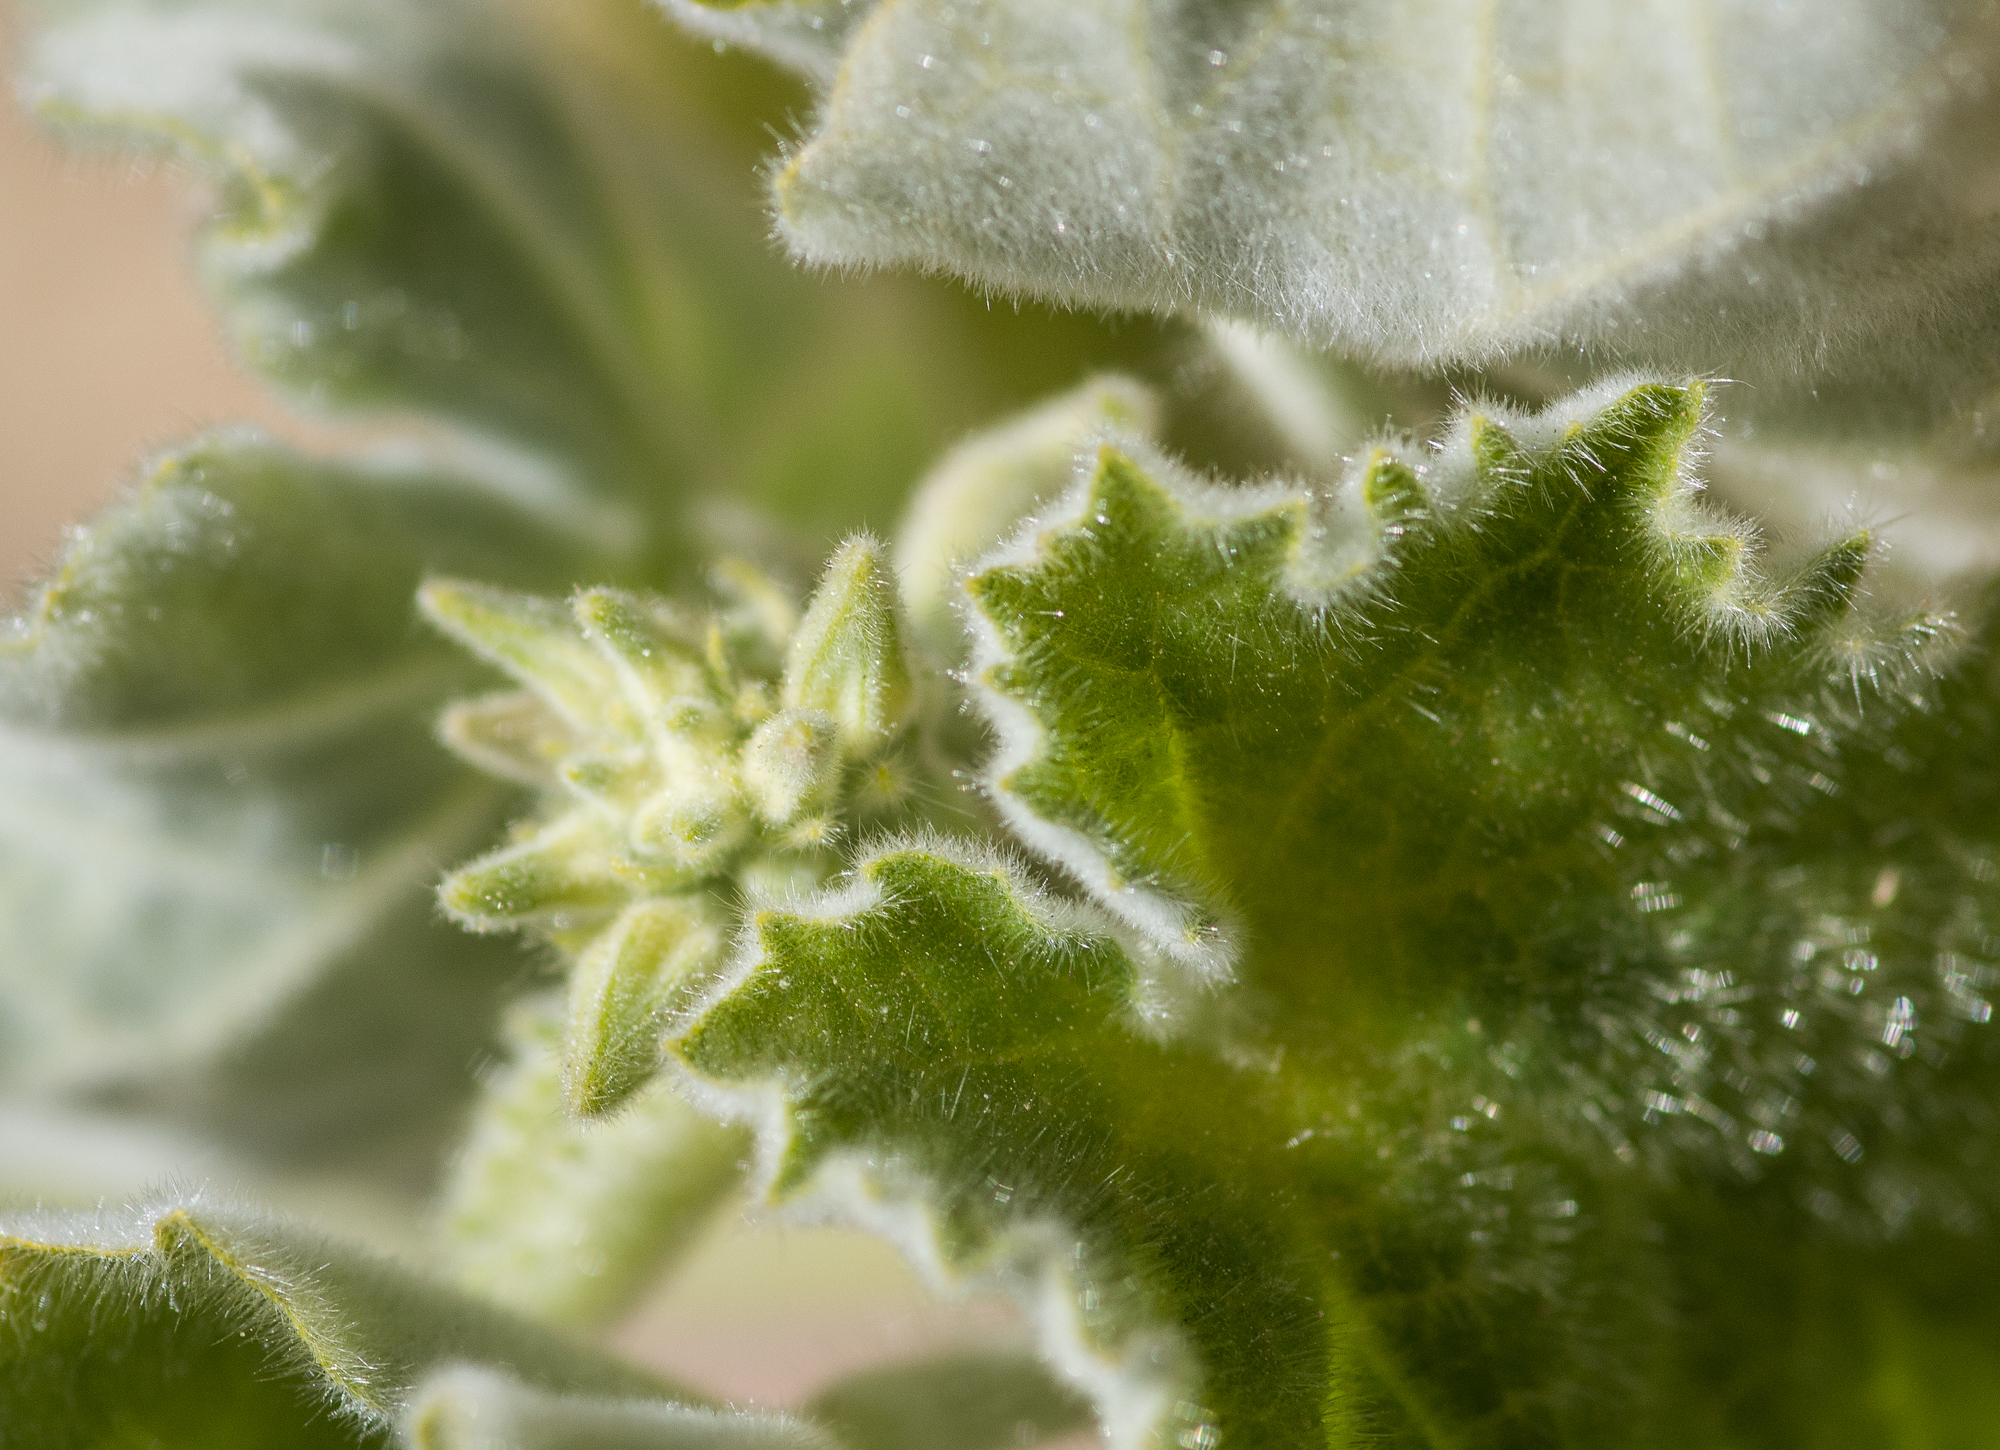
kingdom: Plantae
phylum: Tracheophyta
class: Magnoliopsida
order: Malvales
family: Malvaceae
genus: Abutilon
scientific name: Abutilon parishii
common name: Parish's abutilon
